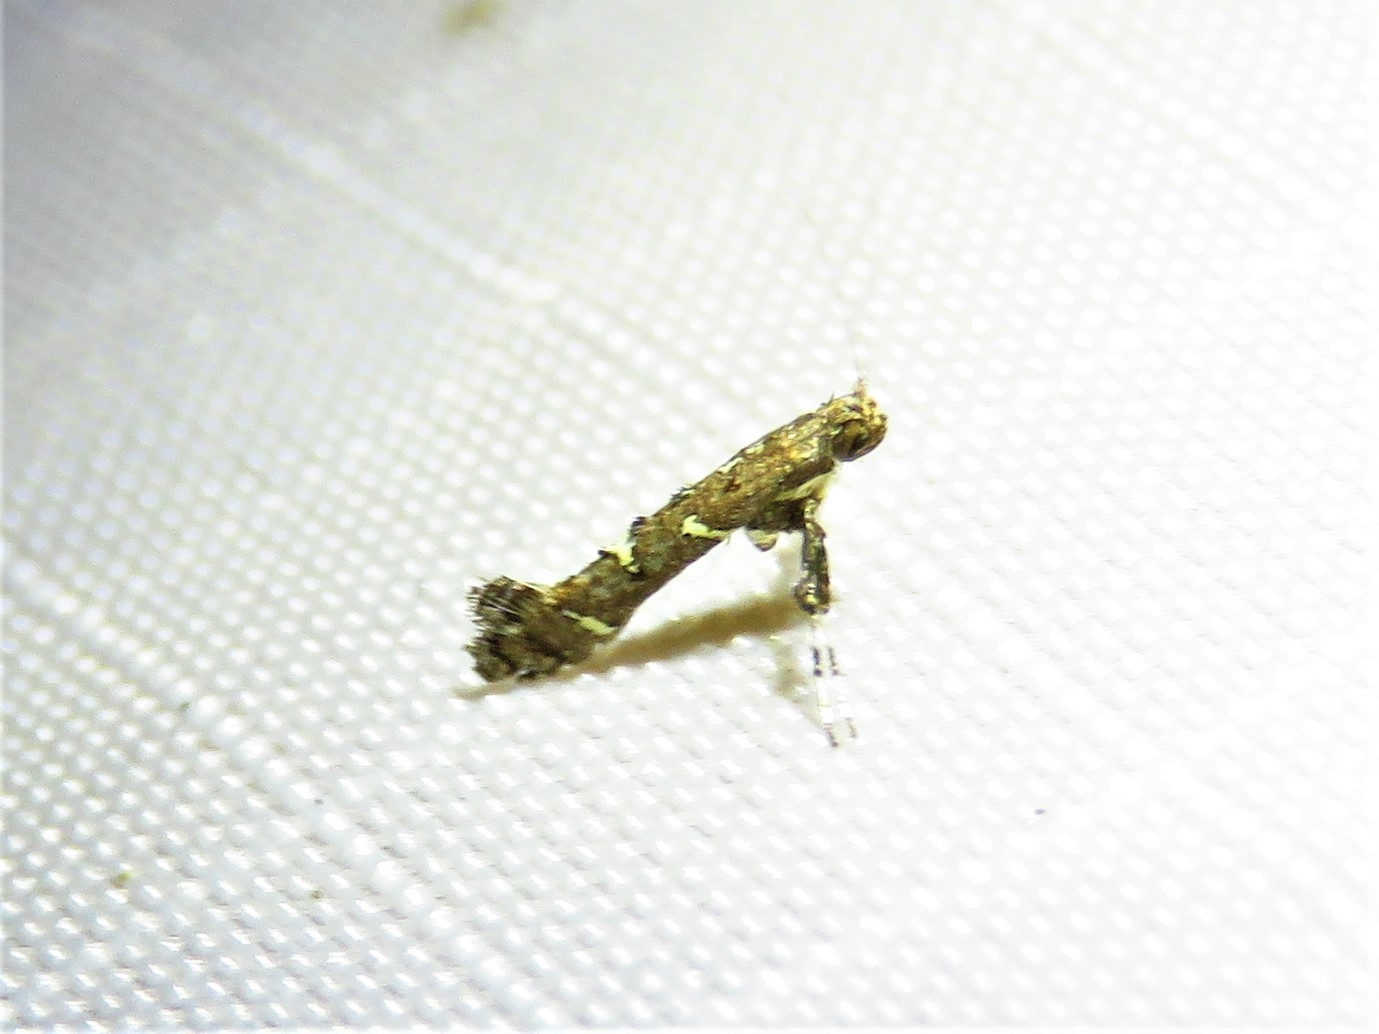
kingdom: Animalia
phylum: Arthropoda
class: Insecta
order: Lepidoptera
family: Gracillariidae
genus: Caloptilia
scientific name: Caloptilia triadicae
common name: Tallow leaf roller
